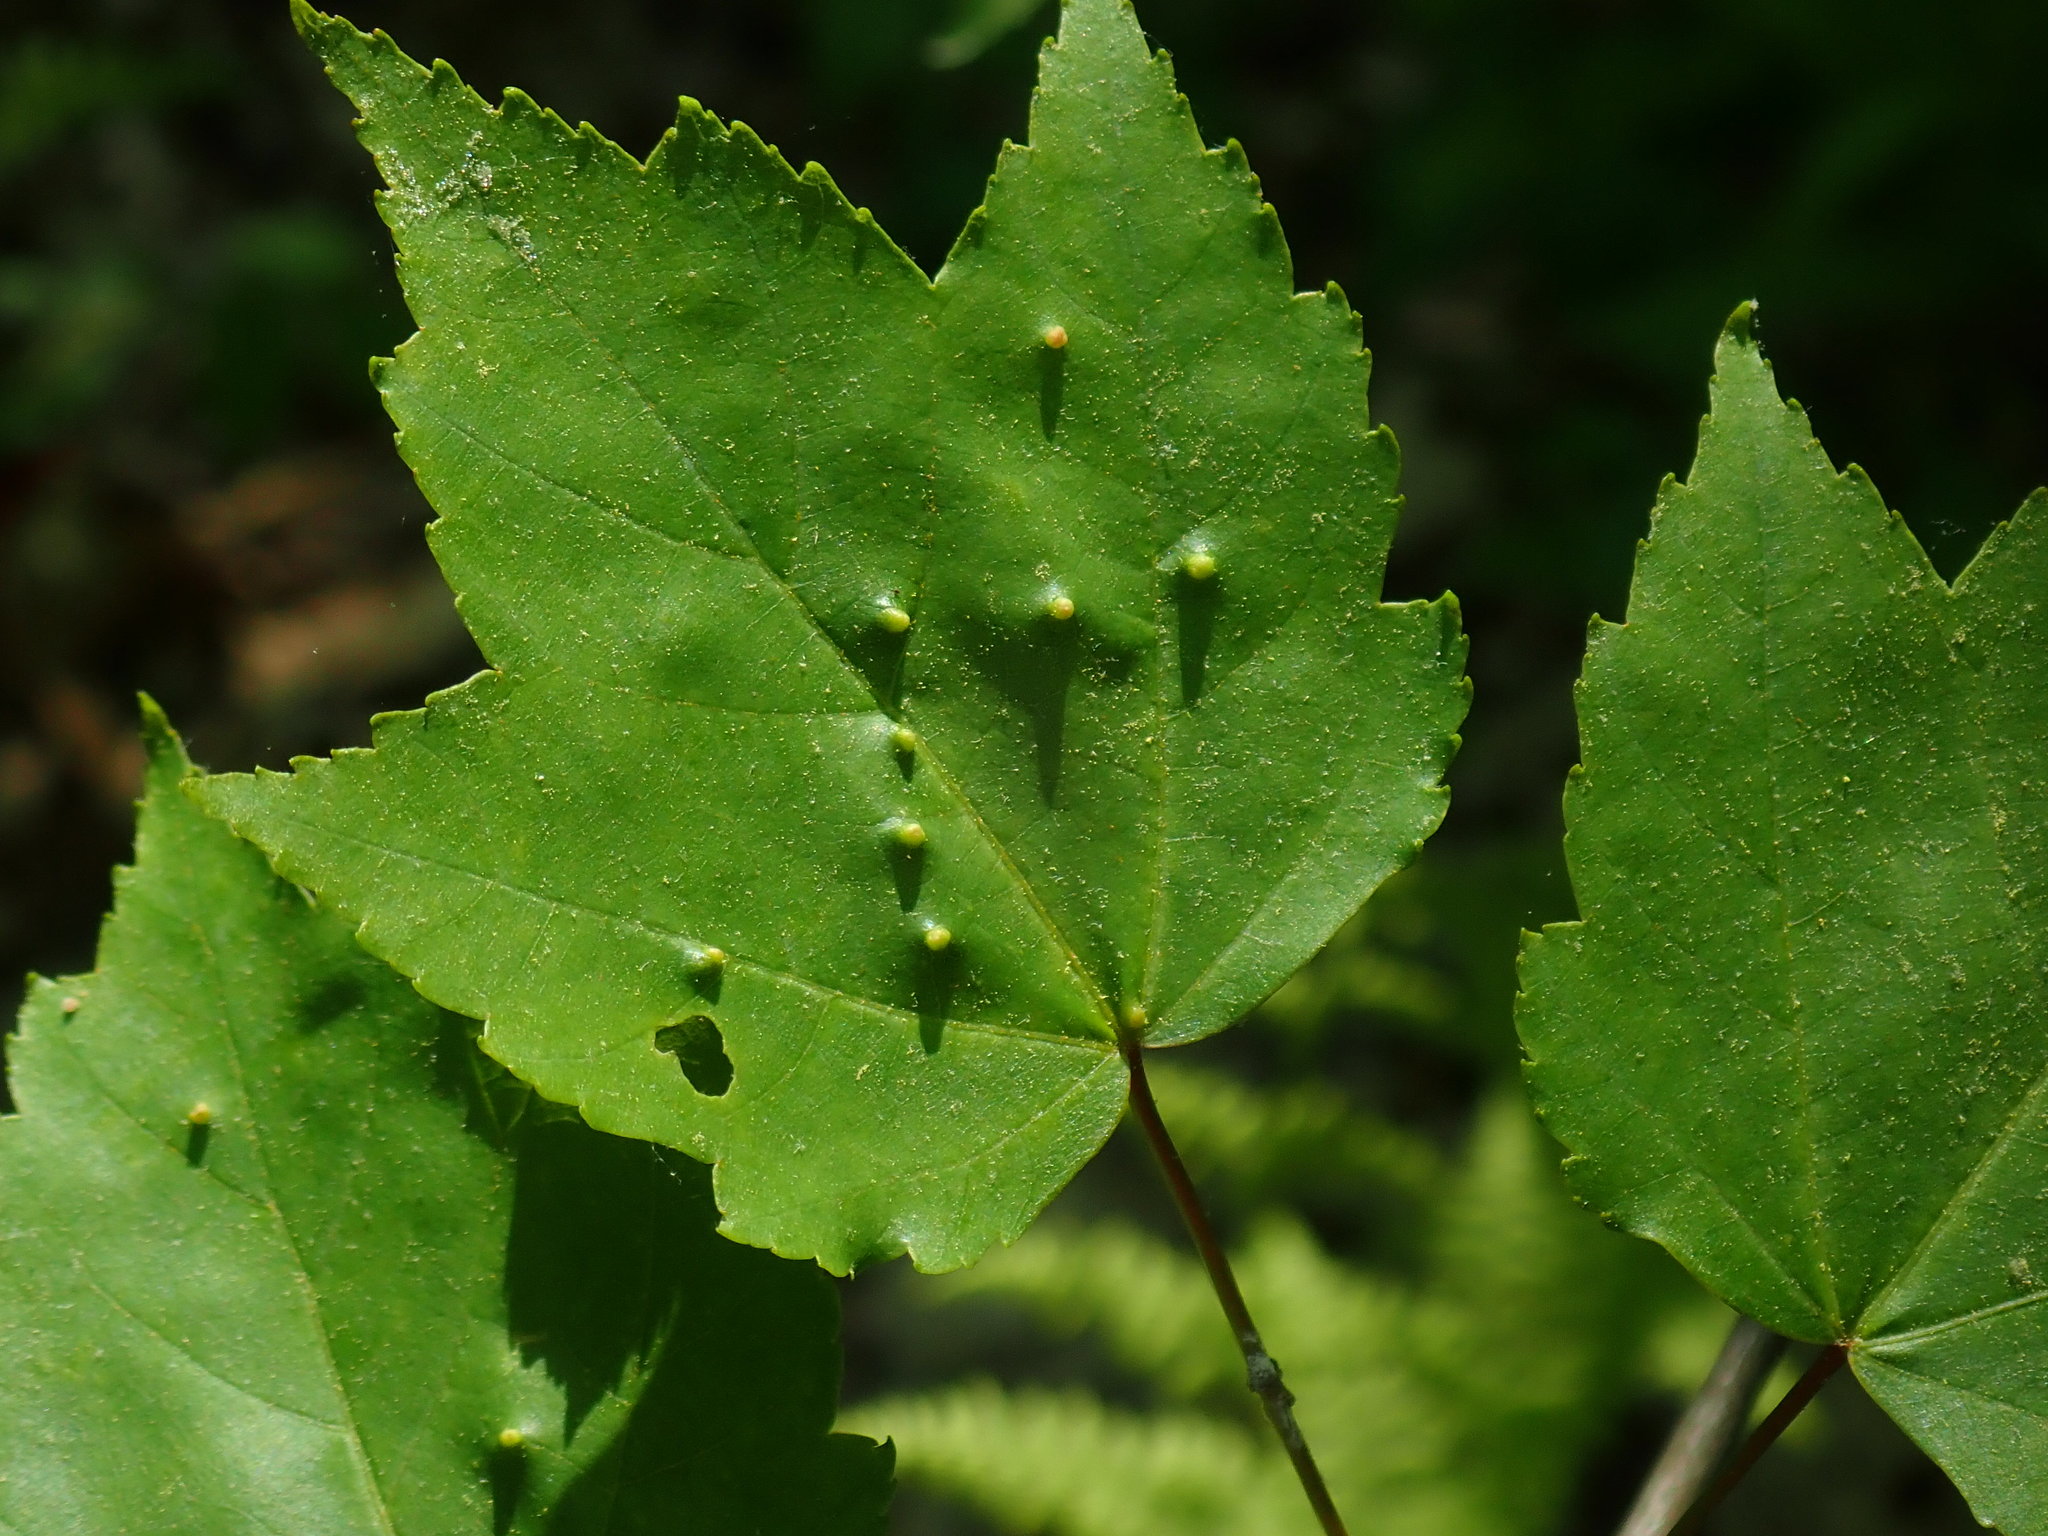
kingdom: Animalia
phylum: Arthropoda
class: Arachnida
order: Trombidiformes
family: Eriophyidae
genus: Vasates
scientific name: Vasates quadripedes
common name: Maple bladder gall mite
